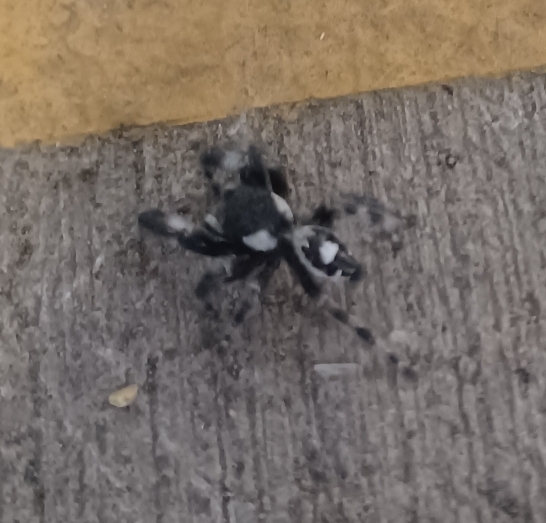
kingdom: Animalia
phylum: Arthropoda
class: Arachnida
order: Araneae
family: Salticidae
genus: Phidippus
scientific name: Phidippus audax
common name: Bold jumper
